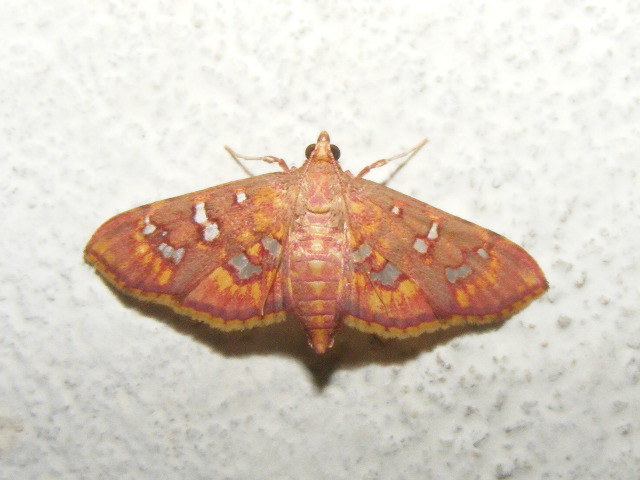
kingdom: Animalia
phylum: Arthropoda
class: Insecta
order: Lepidoptera
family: Crambidae
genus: Ischnurges
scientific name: Ischnurges gratiosalis
